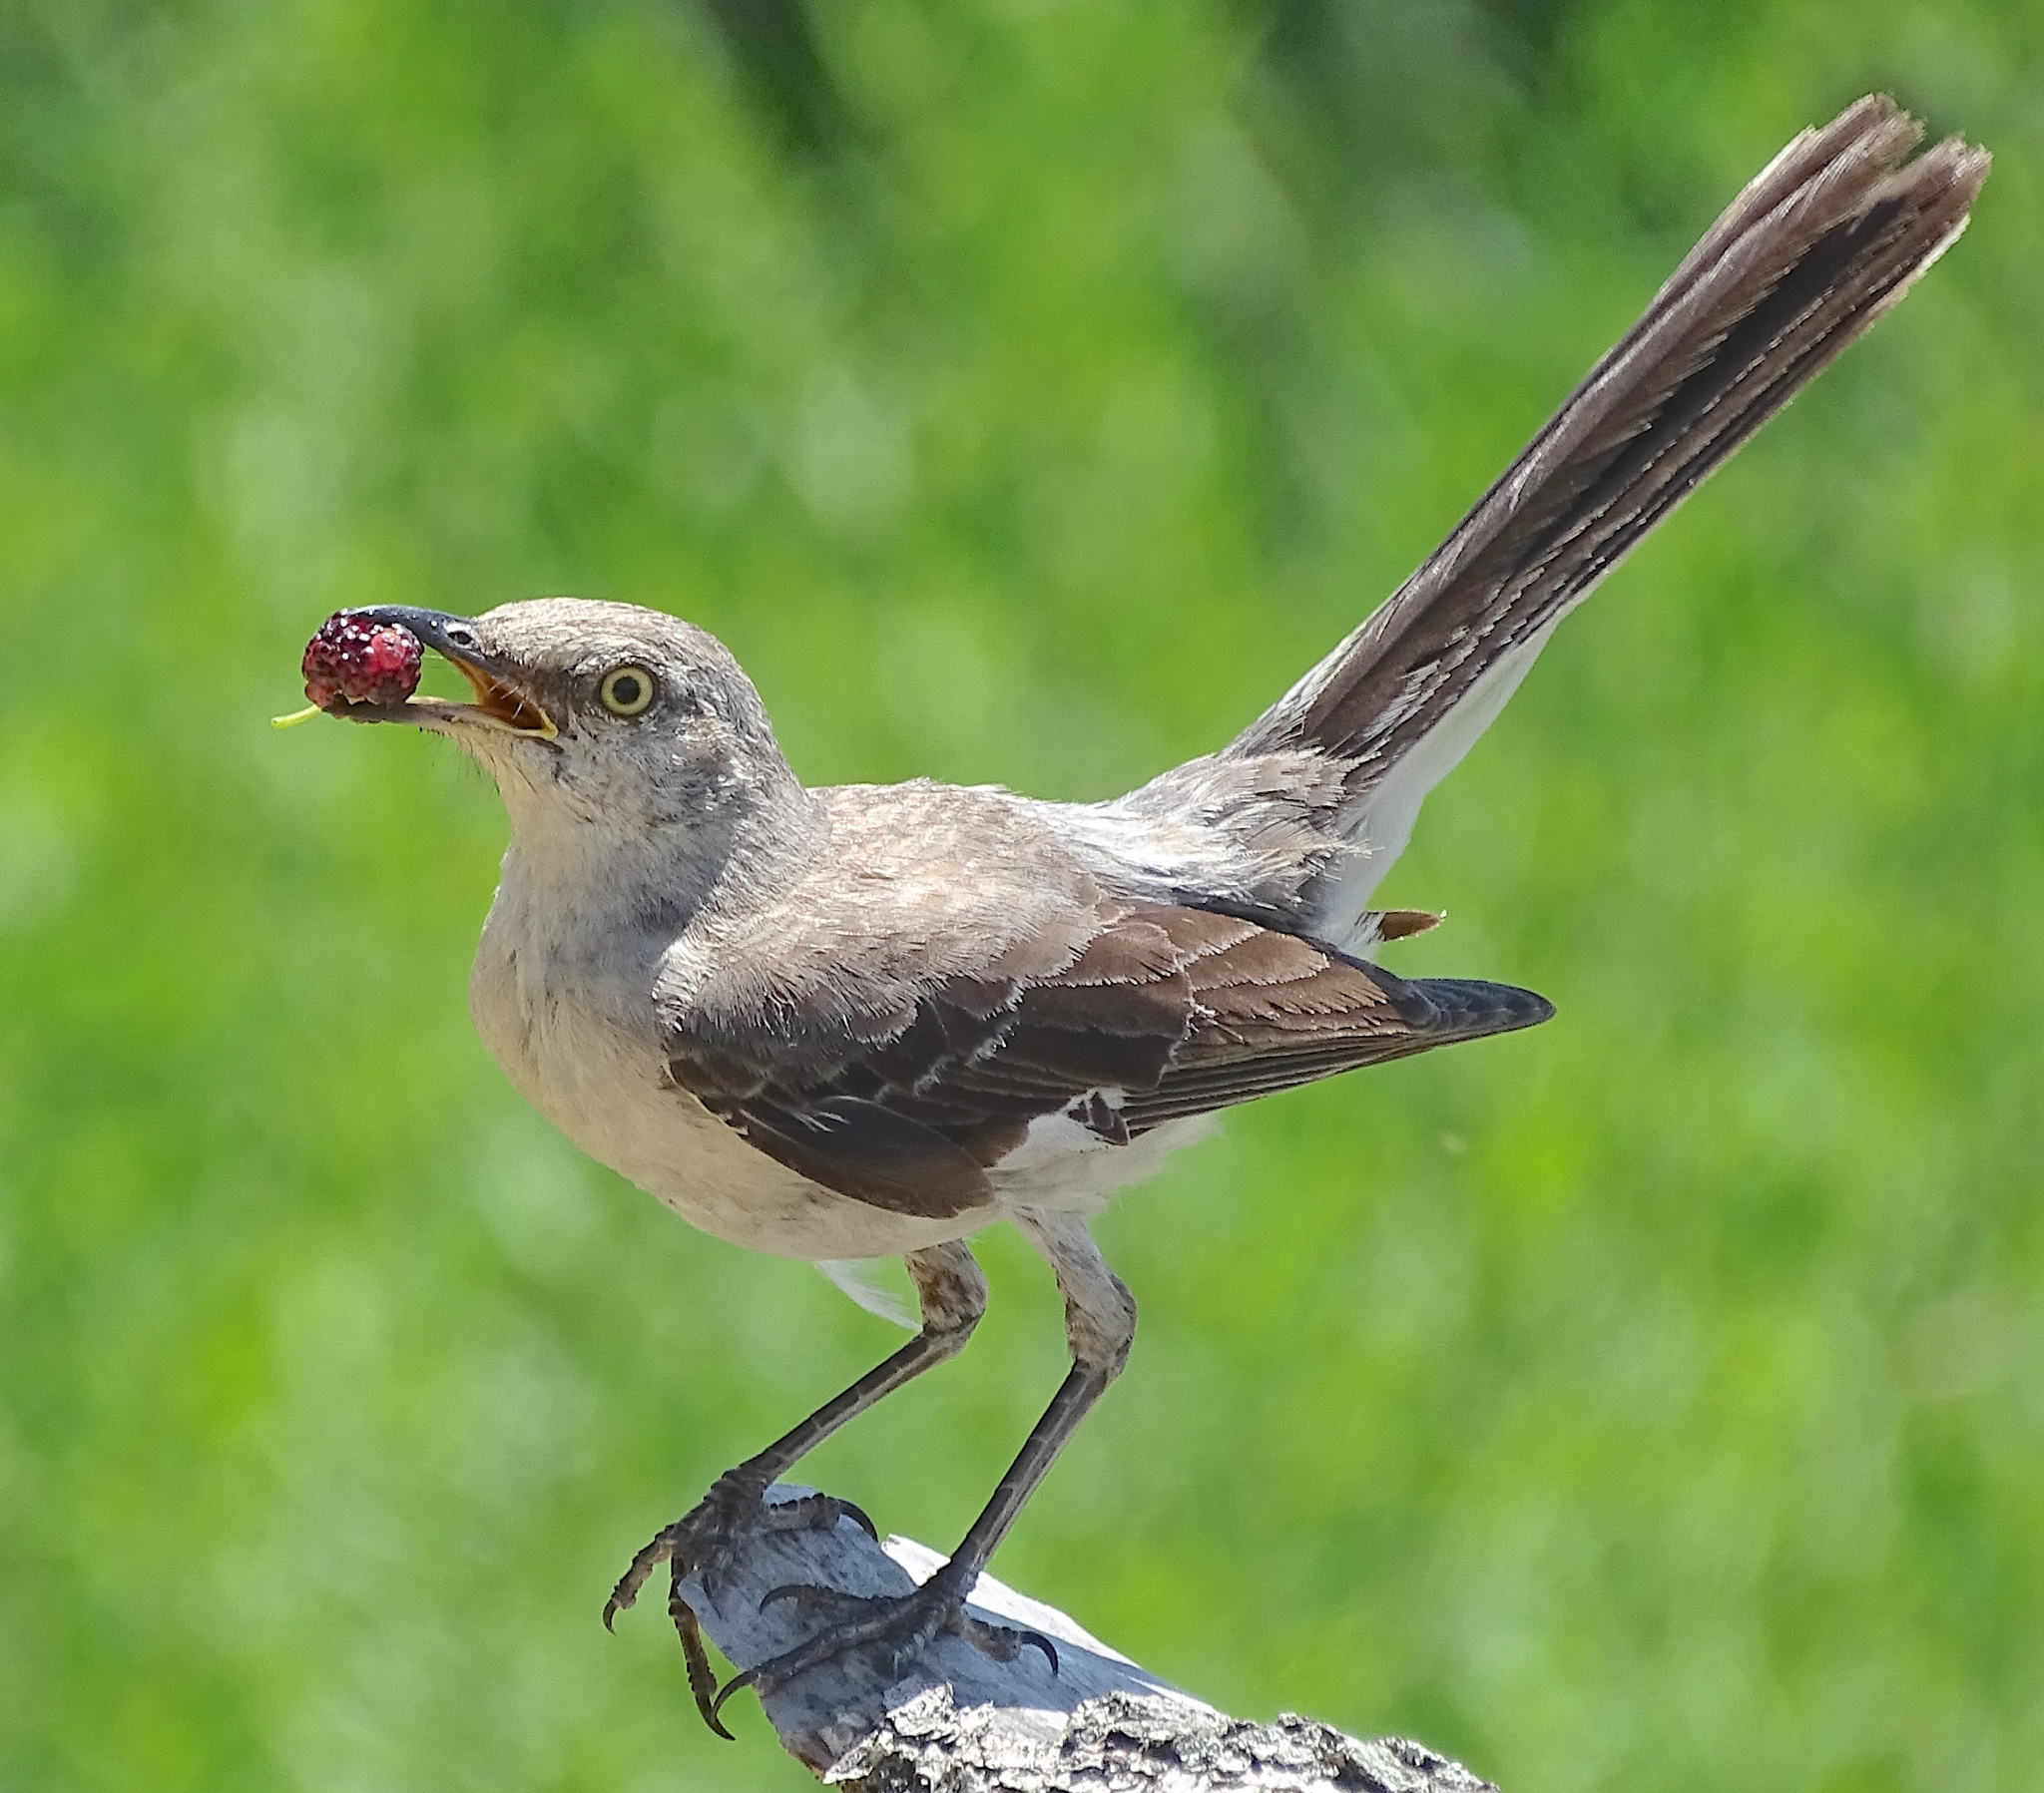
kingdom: Animalia
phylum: Chordata
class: Aves
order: Passeriformes
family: Mimidae
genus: Mimus
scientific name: Mimus polyglottos
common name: Northern mockingbird
